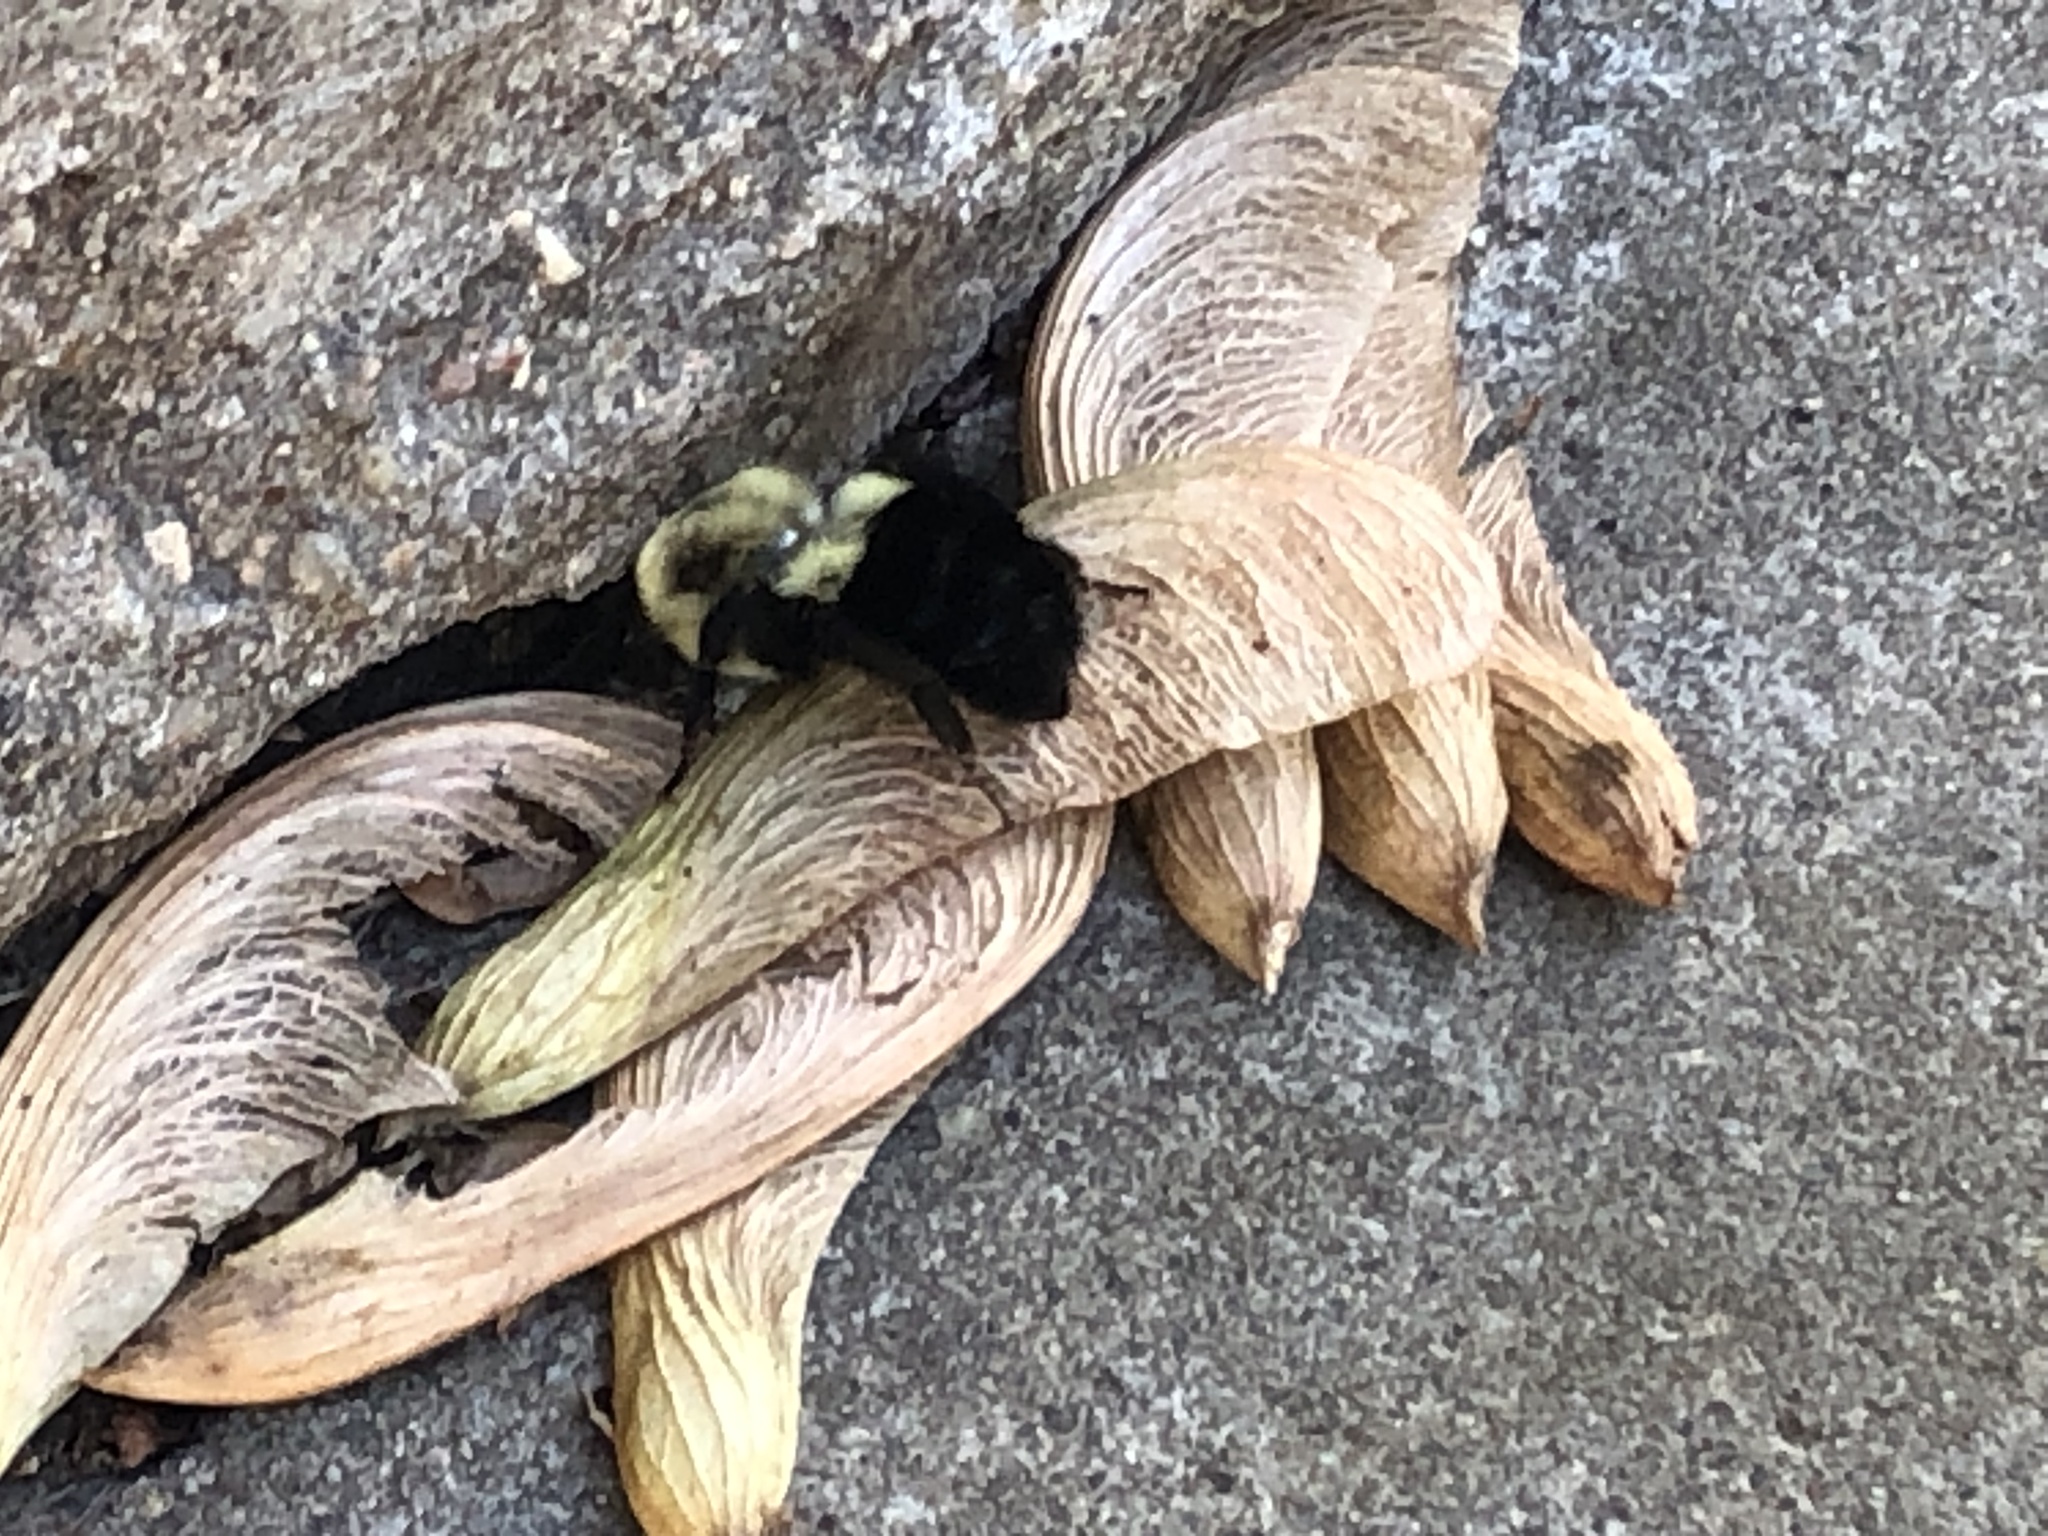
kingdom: Animalia
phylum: Arthropoda
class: Insecta
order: Hymenoptera
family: Apidae
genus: Bombus
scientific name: Bombus impatiens
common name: Common eastern bumble bee
